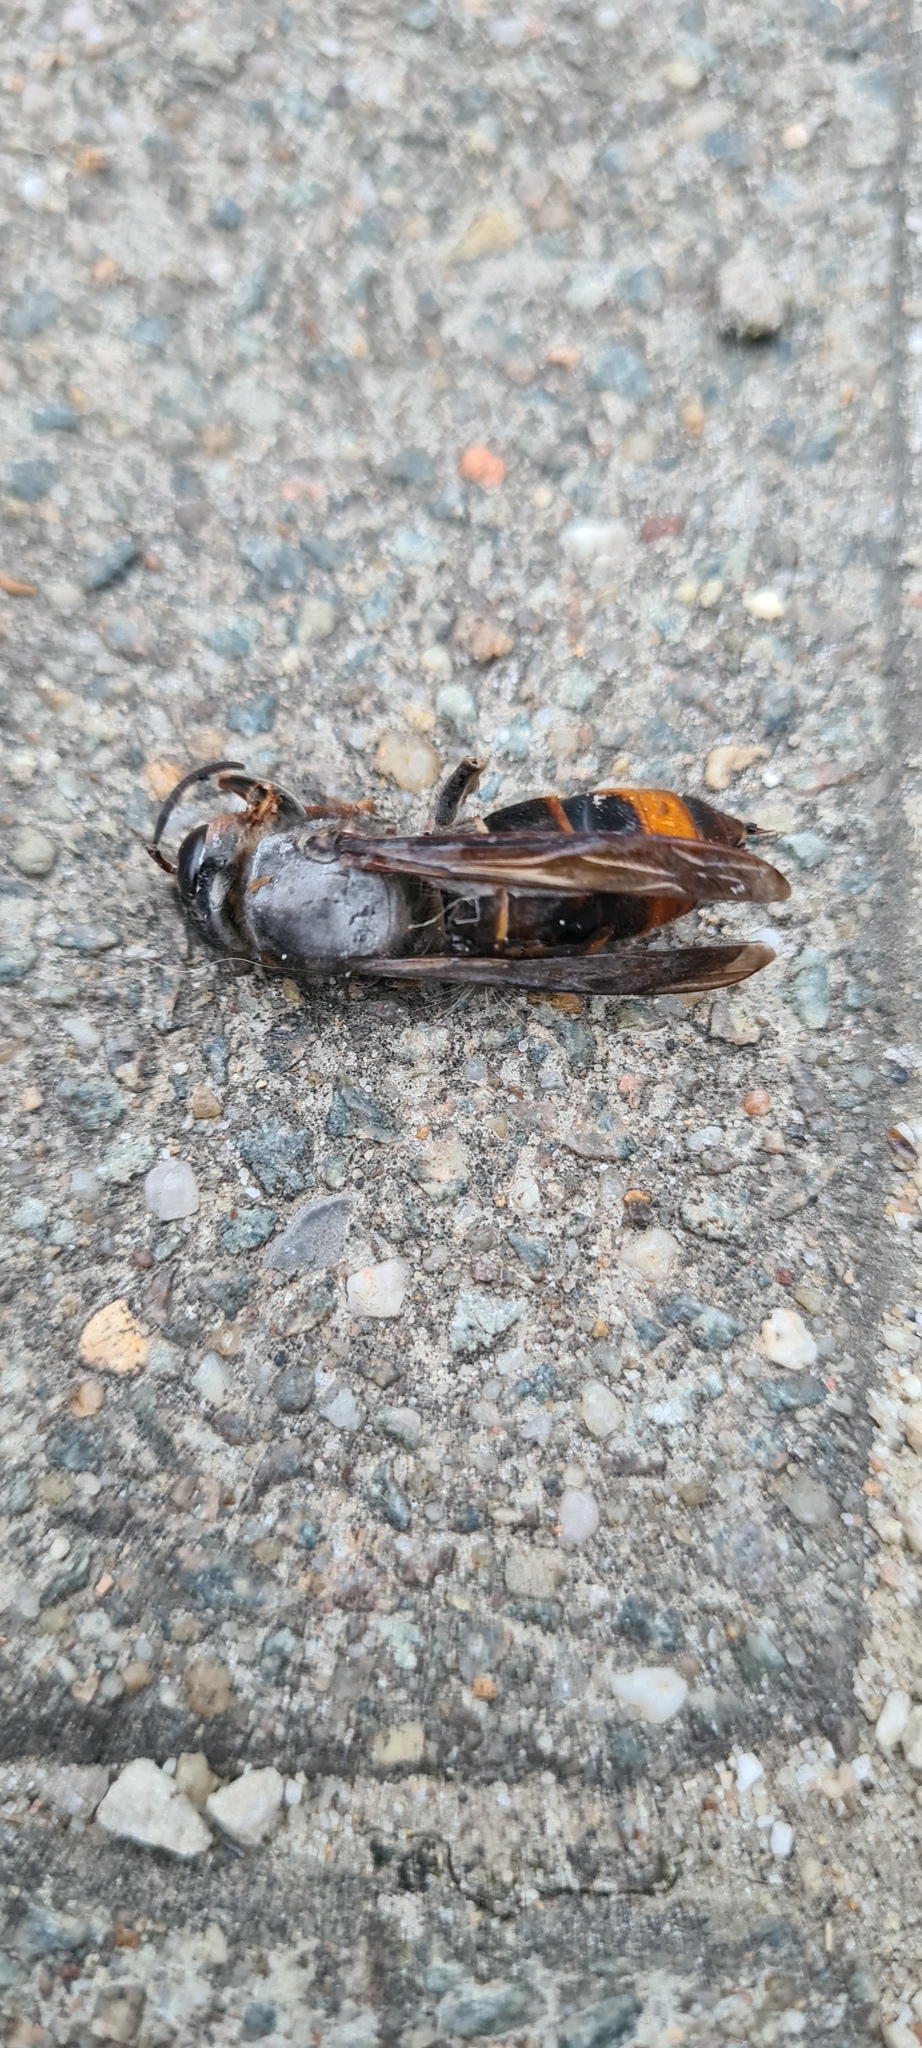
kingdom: Animalia
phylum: Arthropoda
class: Insecta
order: Hymenoptera
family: Vespidae
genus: Vespa
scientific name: Vespa velutina
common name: Asian hornet
